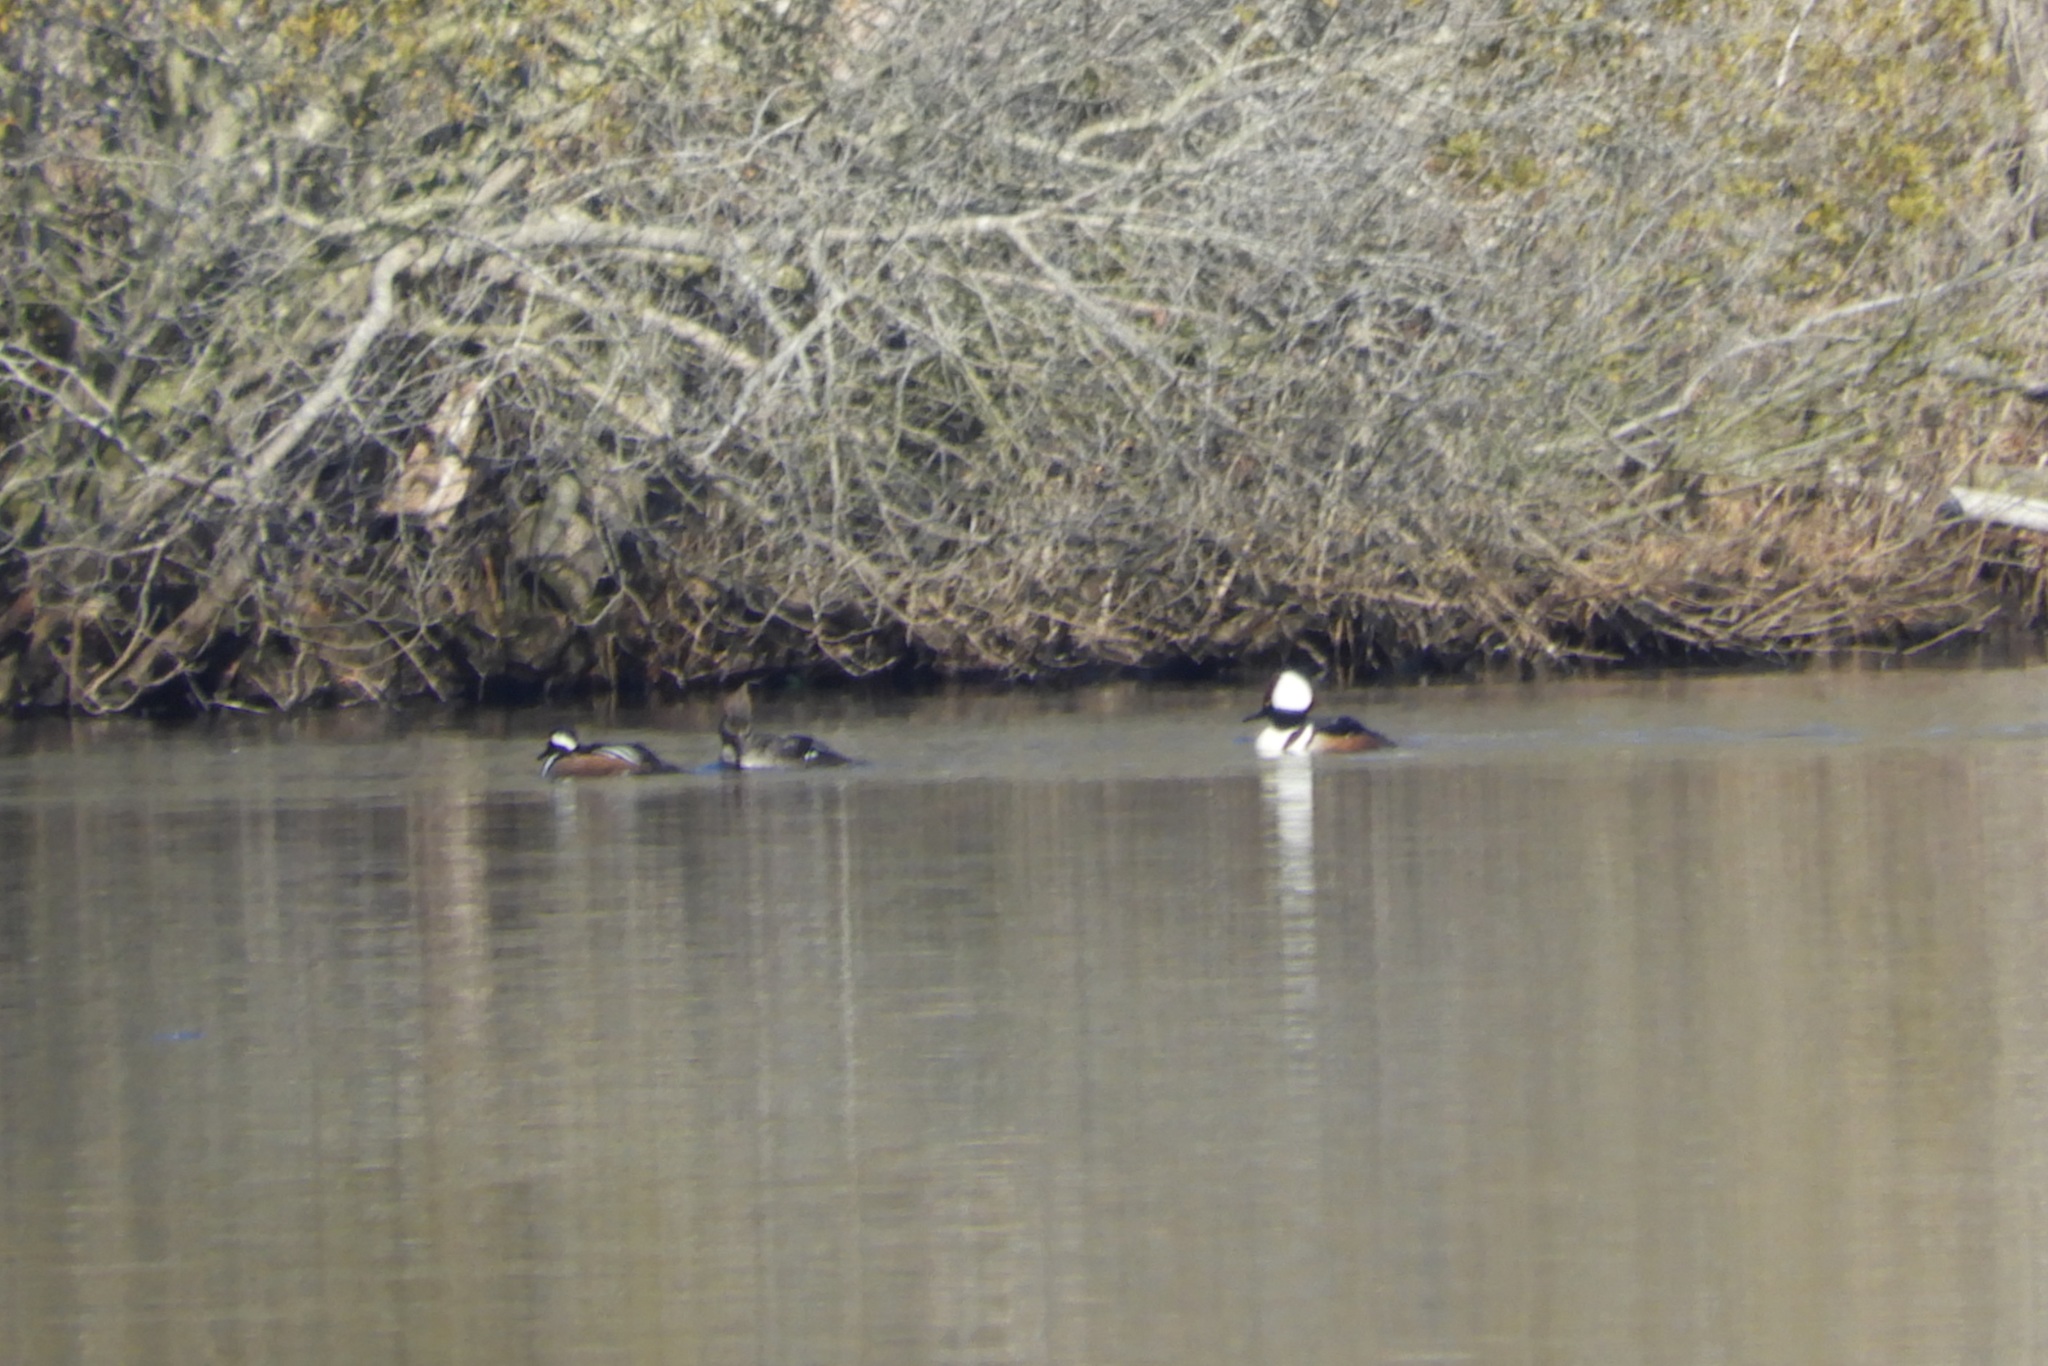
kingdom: Animalia
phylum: Chordata
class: Aves
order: Anseriformes
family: Anatidae
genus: Lophodytes
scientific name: Lophodytes cucullatus
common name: Hooded merganser
